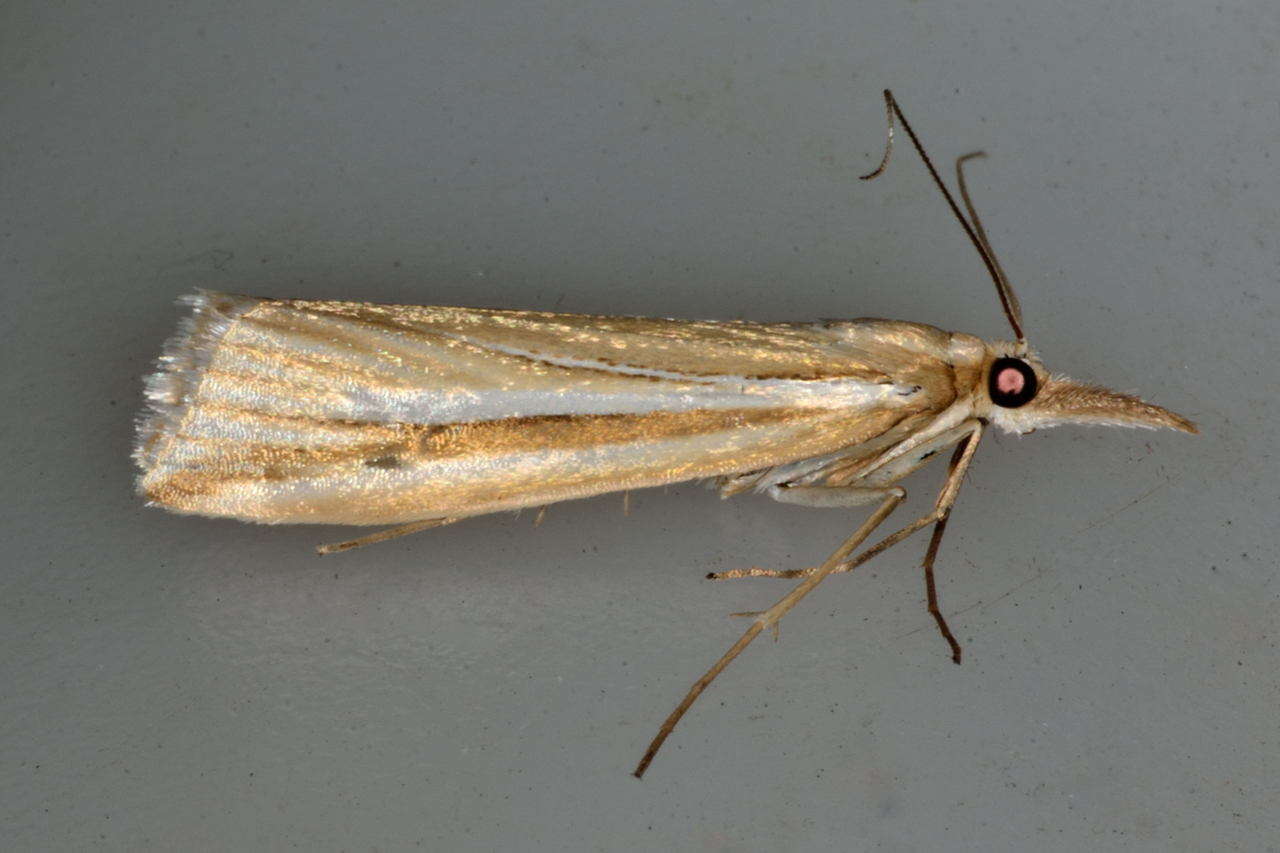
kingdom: Animalia
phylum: Arthropoda
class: Insecta
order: Lepidoptera
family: Crambidae
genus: Hednota
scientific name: Hednota grammellus
